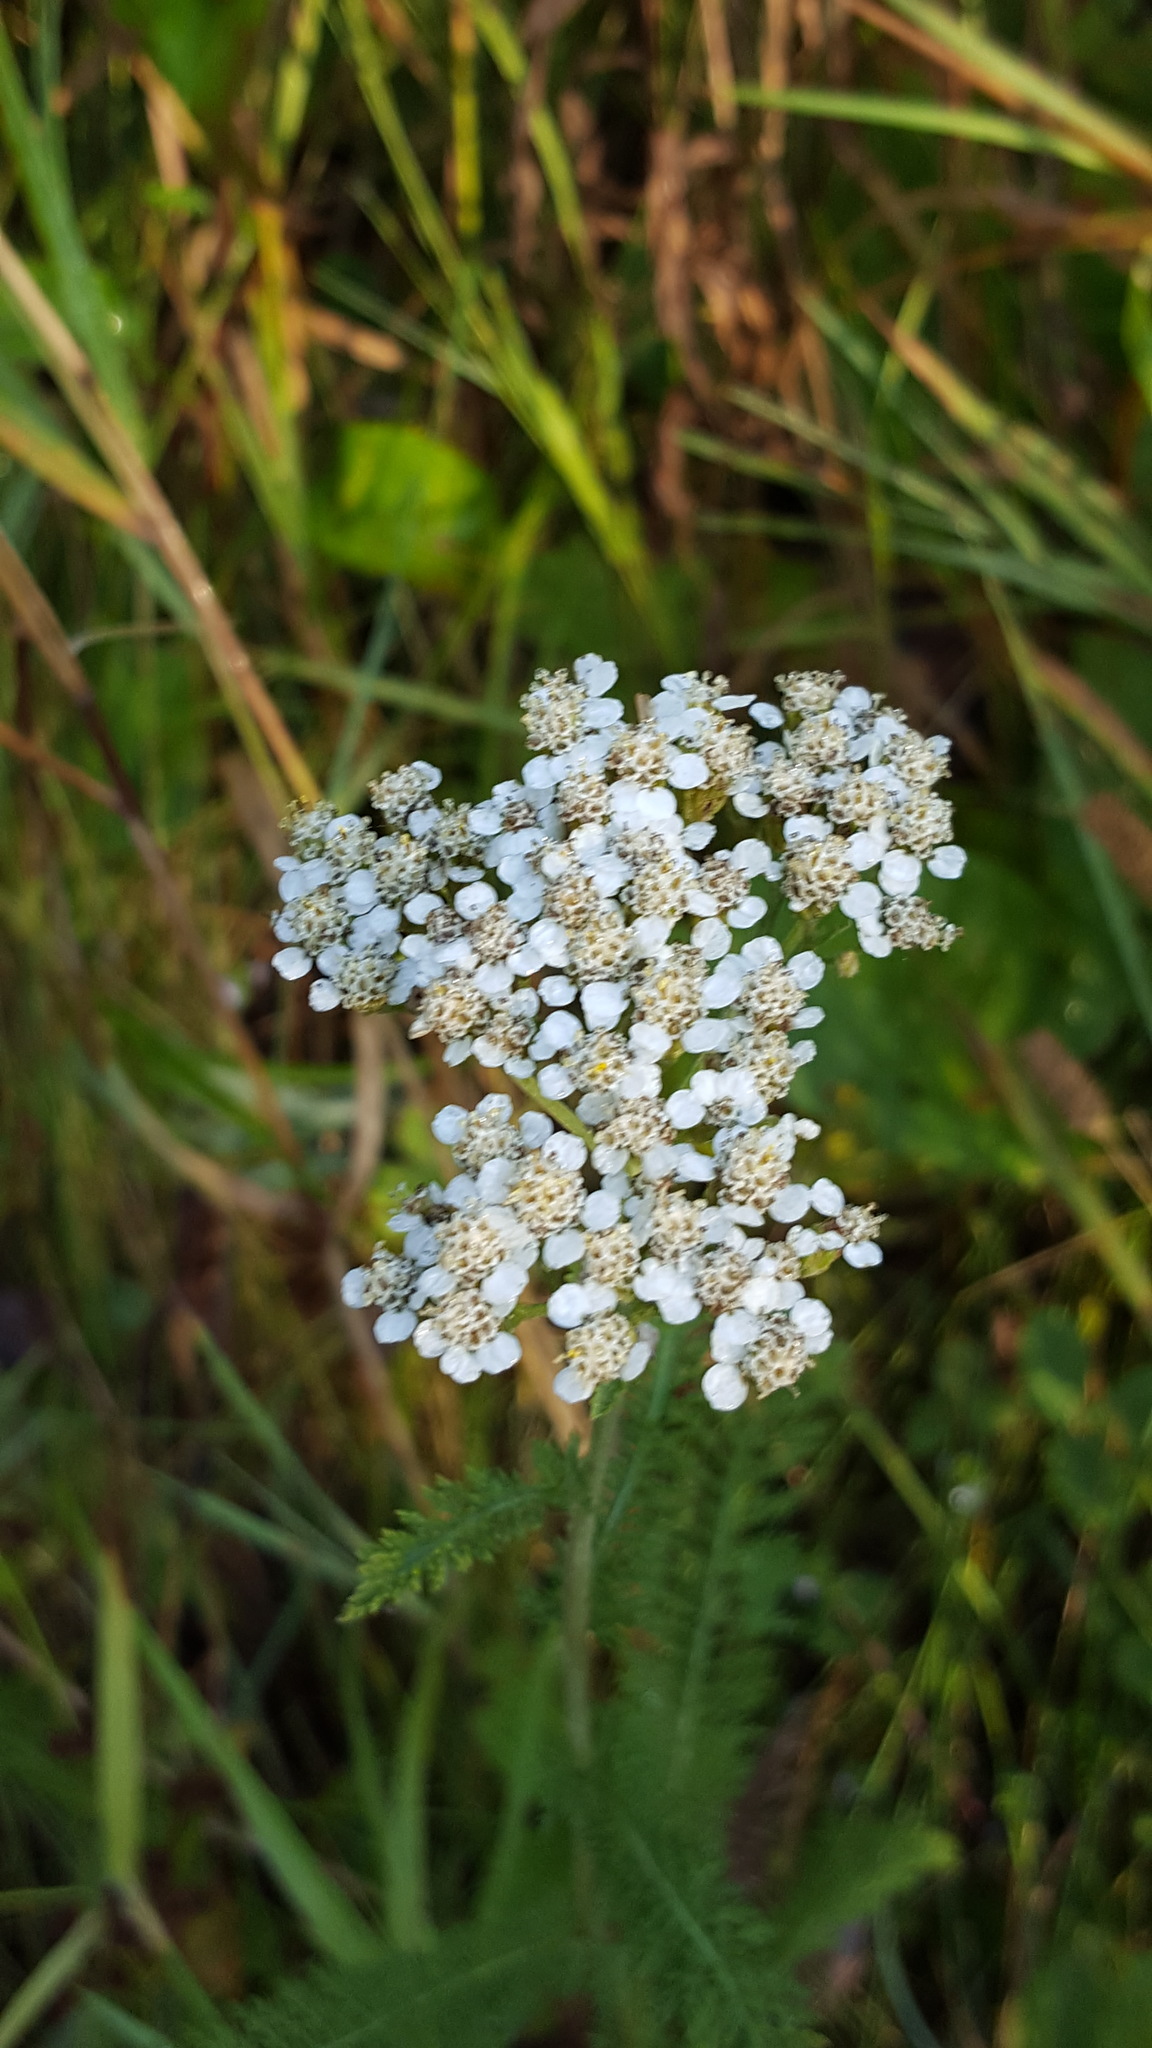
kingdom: Plantae
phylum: Tracheophyta
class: Magnoliopsida
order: Asterales
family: Asteraceae
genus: Achillea
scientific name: Achillea millefolium
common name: Yarrow
